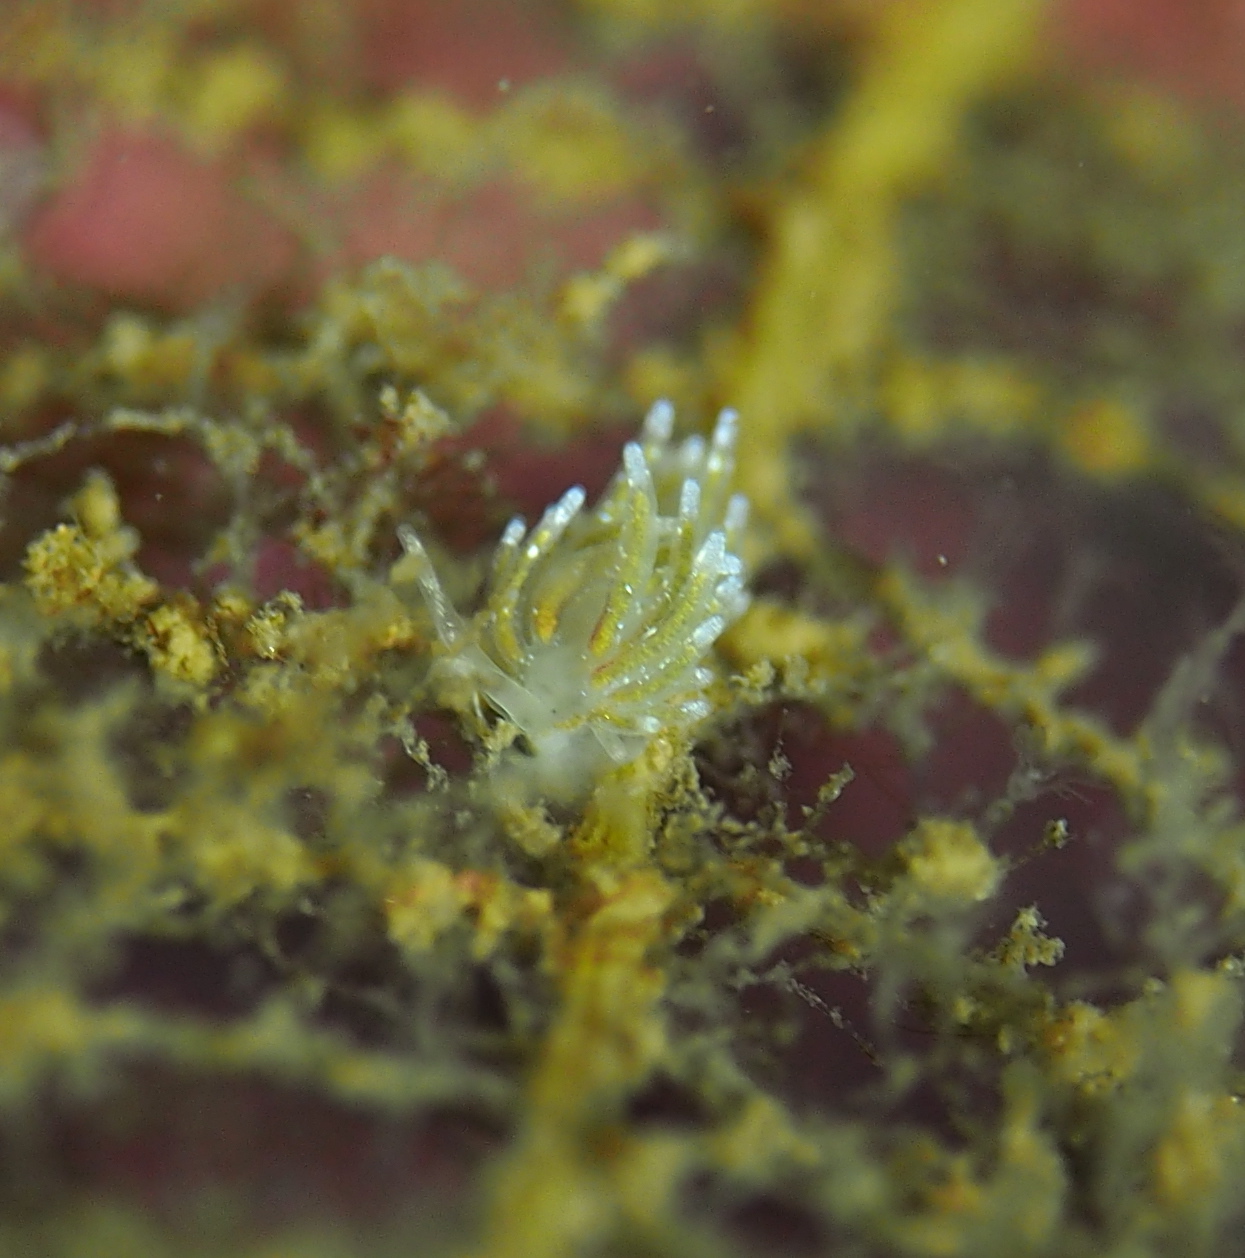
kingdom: Animalia
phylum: Mollusca
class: Gastropoda
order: Nudibranchia
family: Trinchesiidae
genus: Rubramoena
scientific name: Rubramoena amoena
